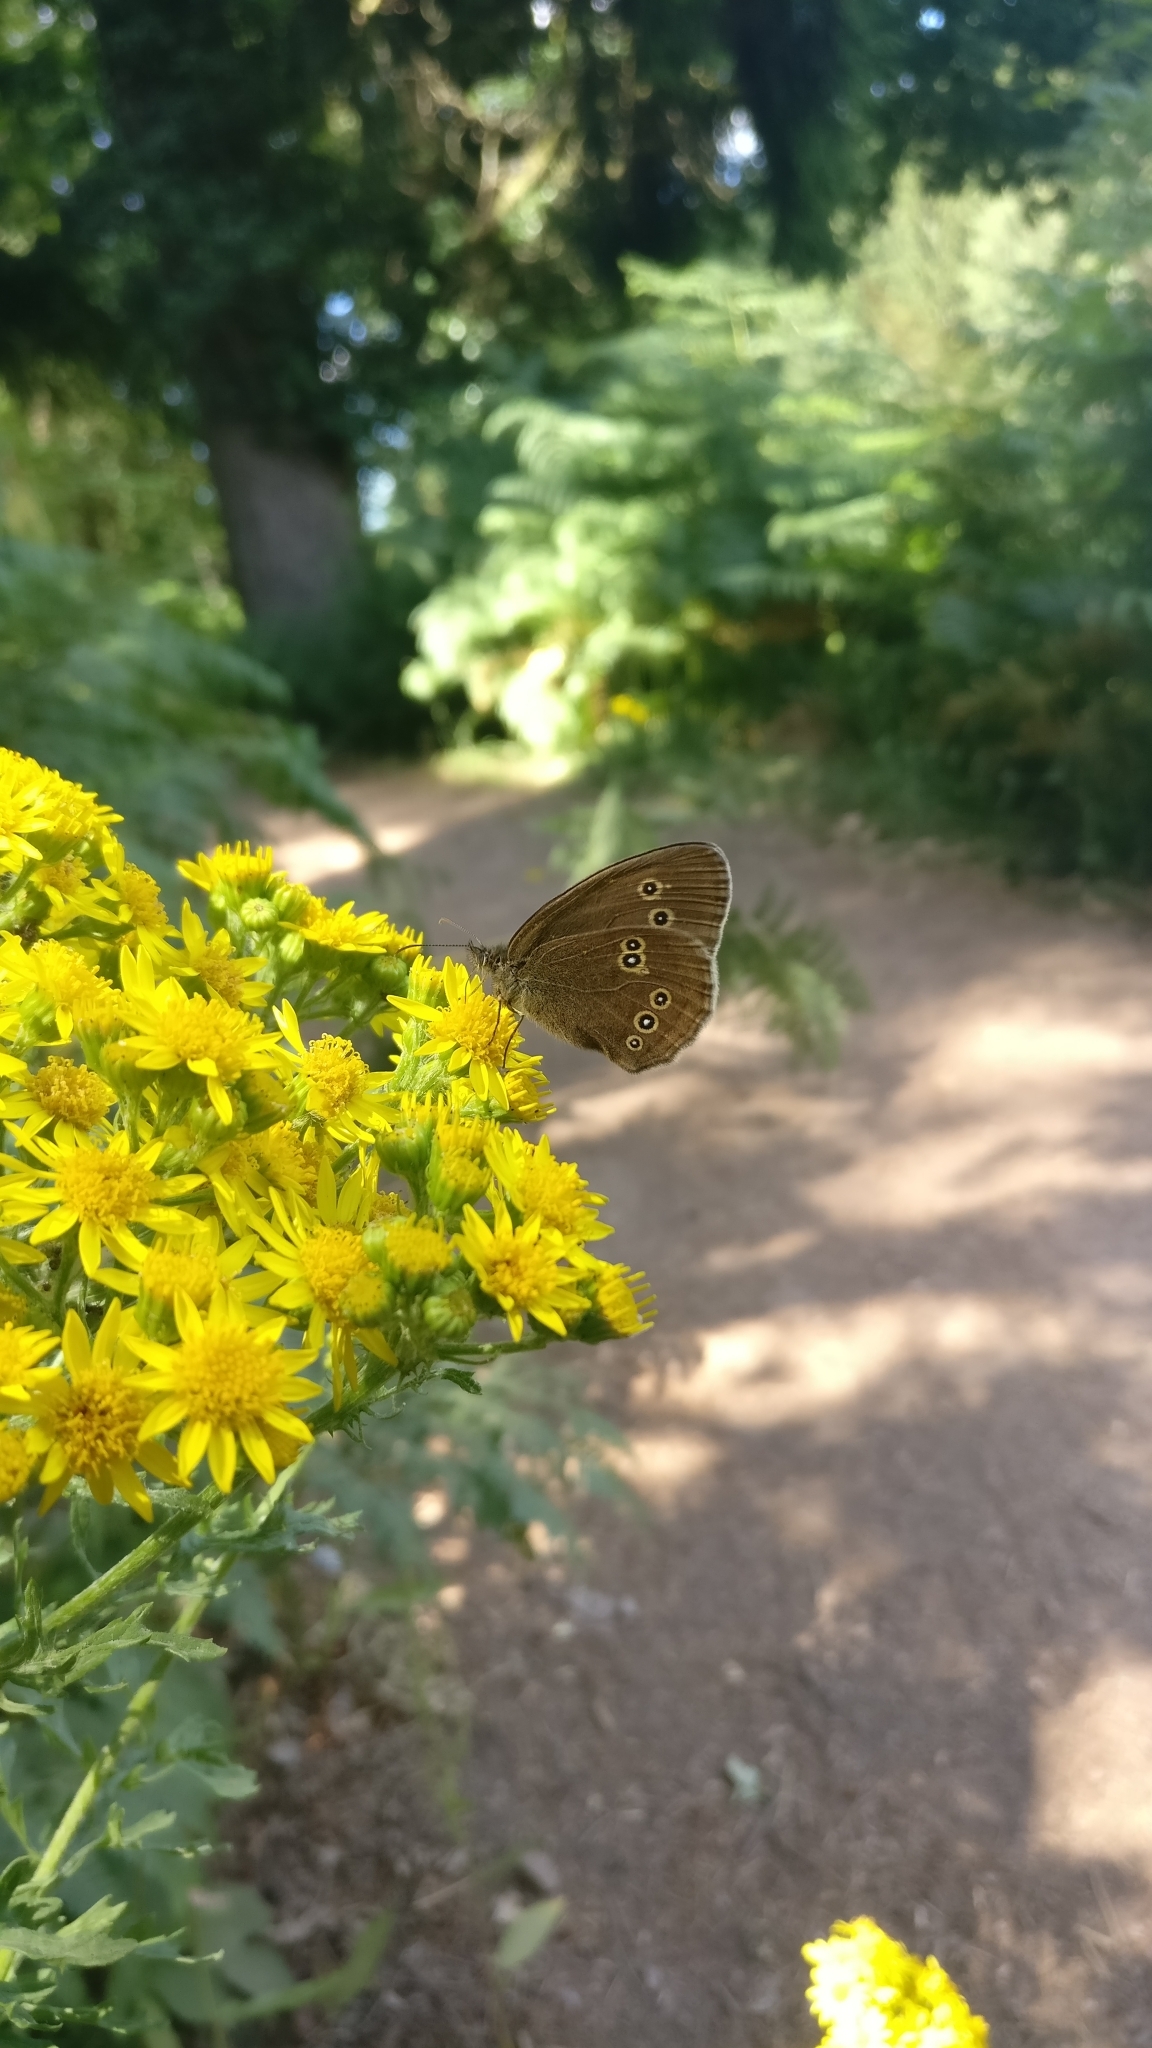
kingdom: Animalia
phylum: Arthropoda
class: Insecta
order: Lepidoptera
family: Nymphalidae
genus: Aphantopus
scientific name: Aphantopus hyperantus
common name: Ringlet
